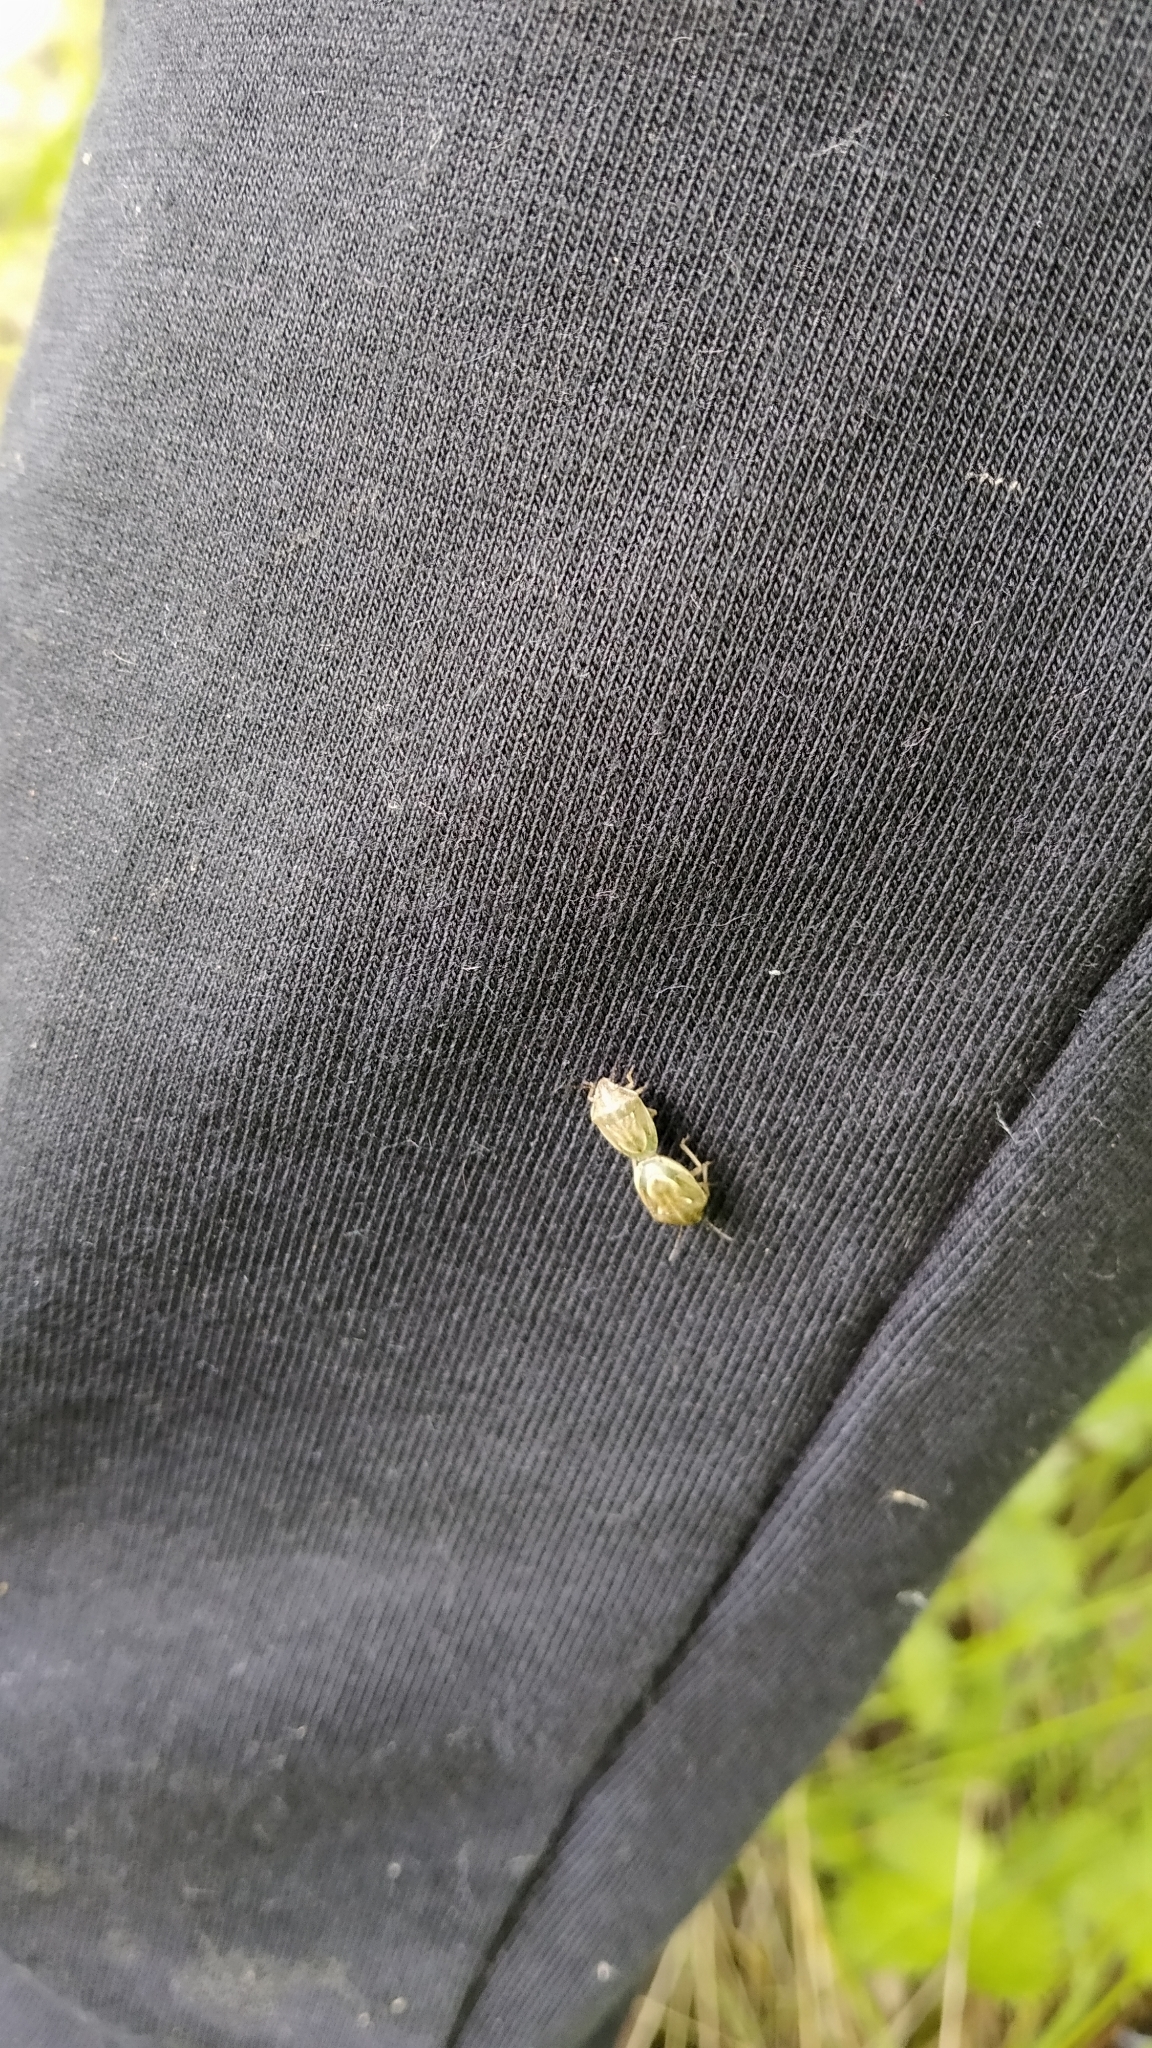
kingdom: Animalia
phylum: Arthropoda
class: Insecta
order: Hemiptera
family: Pentatomidae
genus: Neottiglossa
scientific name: Neottiglossa leporina
